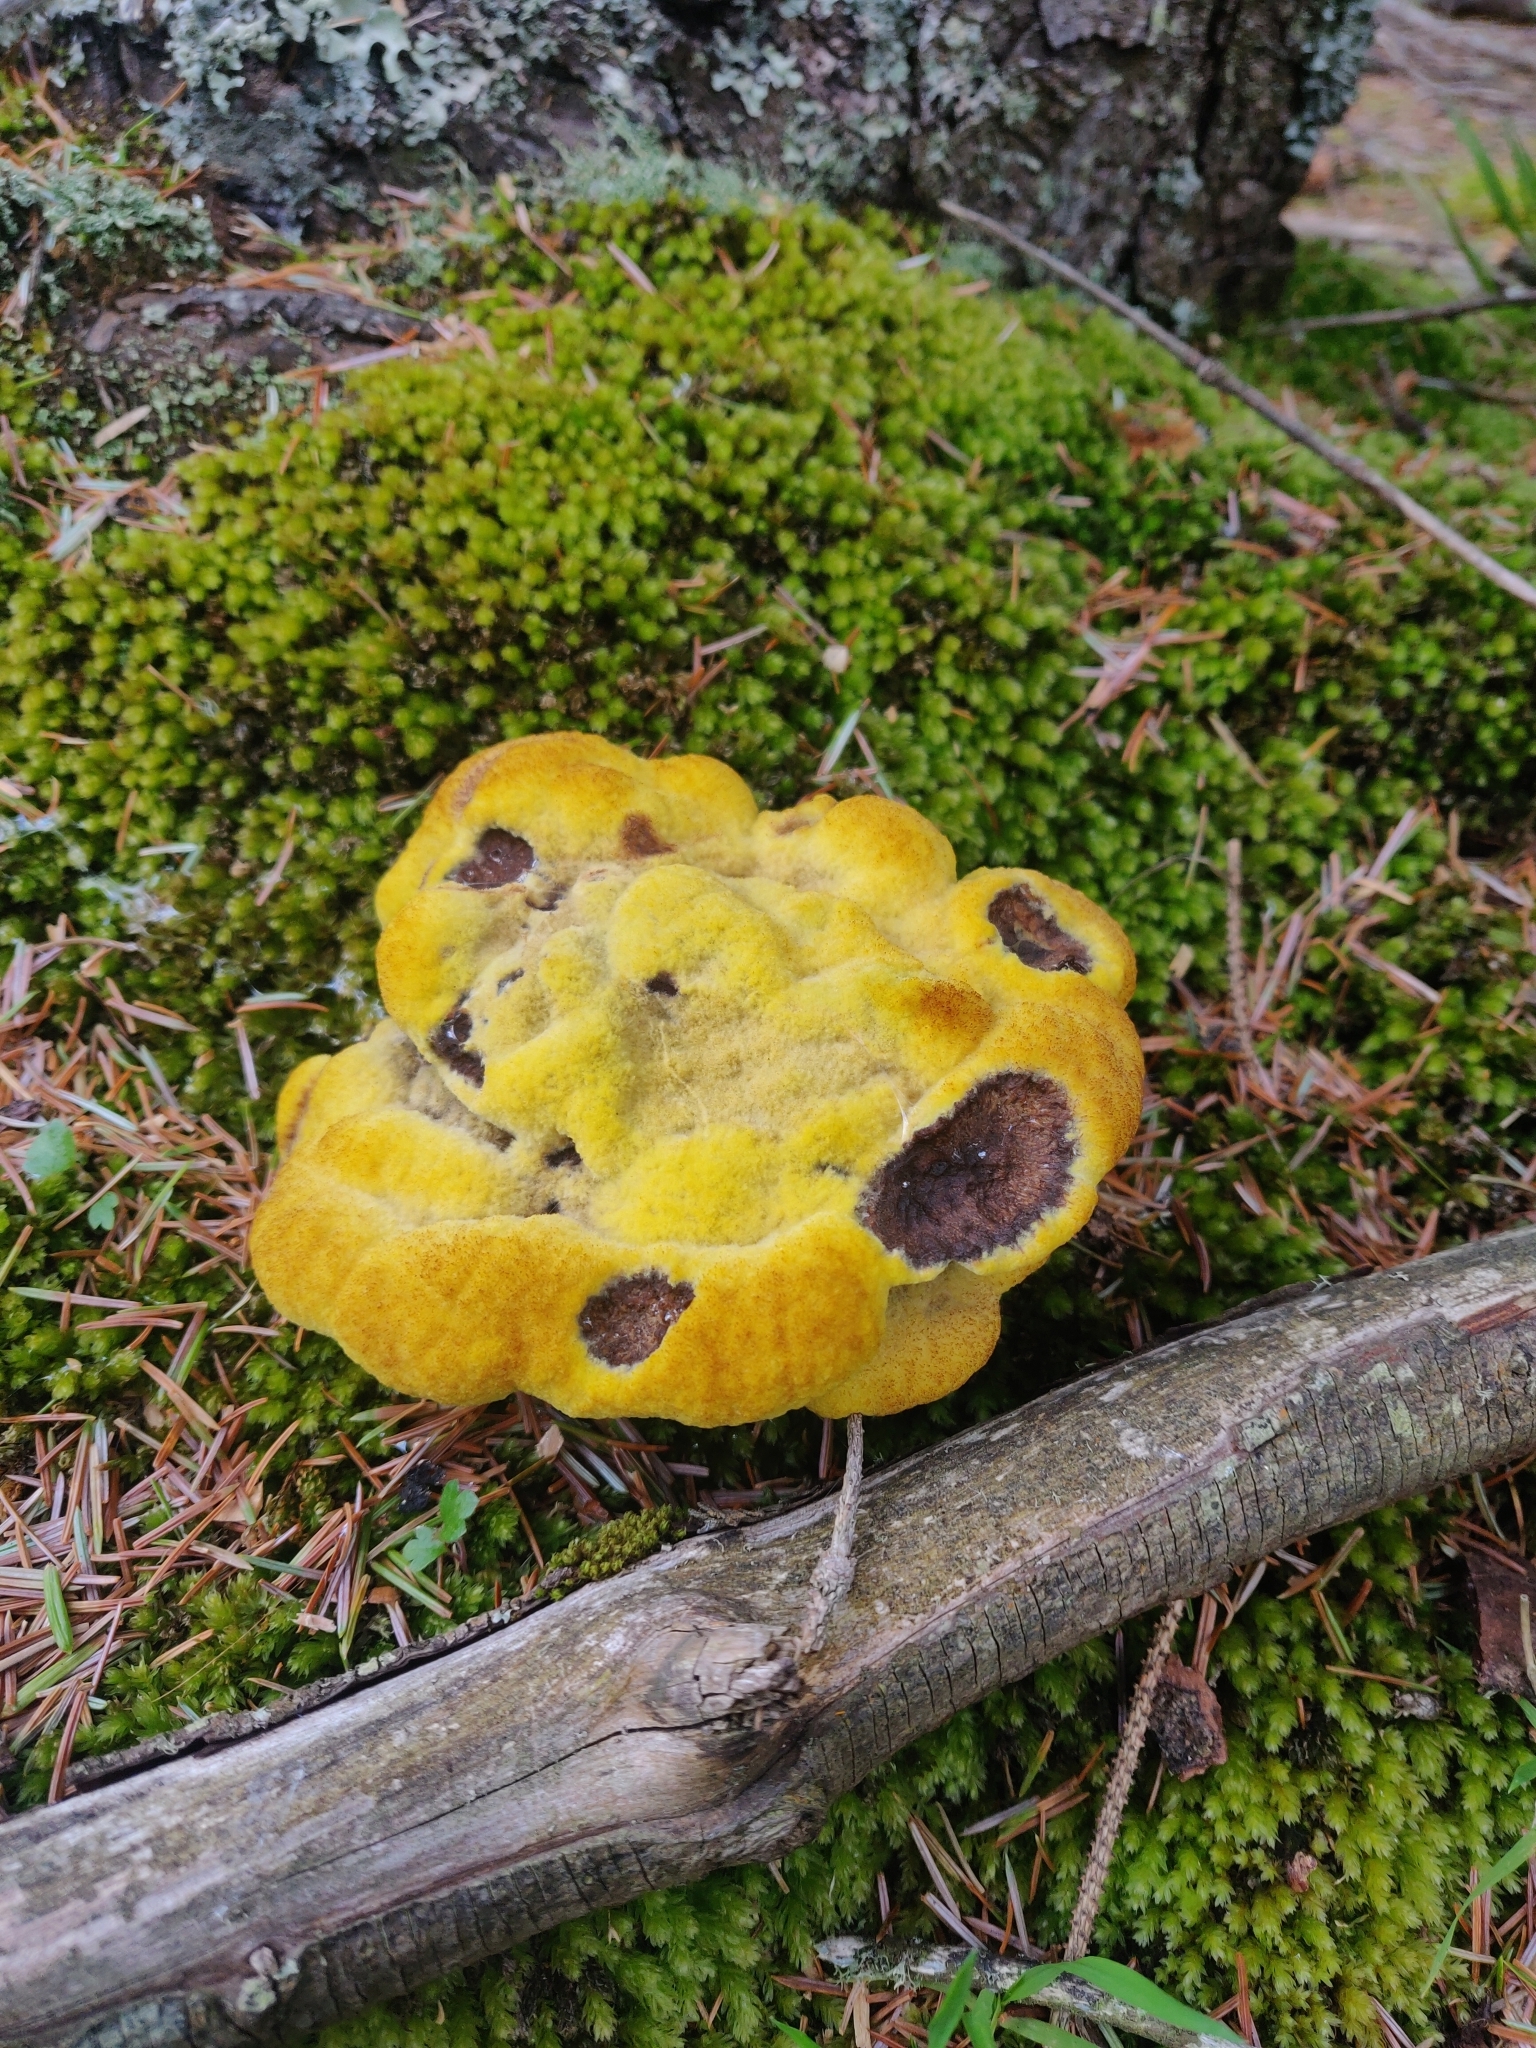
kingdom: Fungi
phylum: Basidiomycota
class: Agaricomycetes
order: Polyporales
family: Laetiporaceae
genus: Phaeolus
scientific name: Phaeolus schweinitzii
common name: Dyer's mazegill
